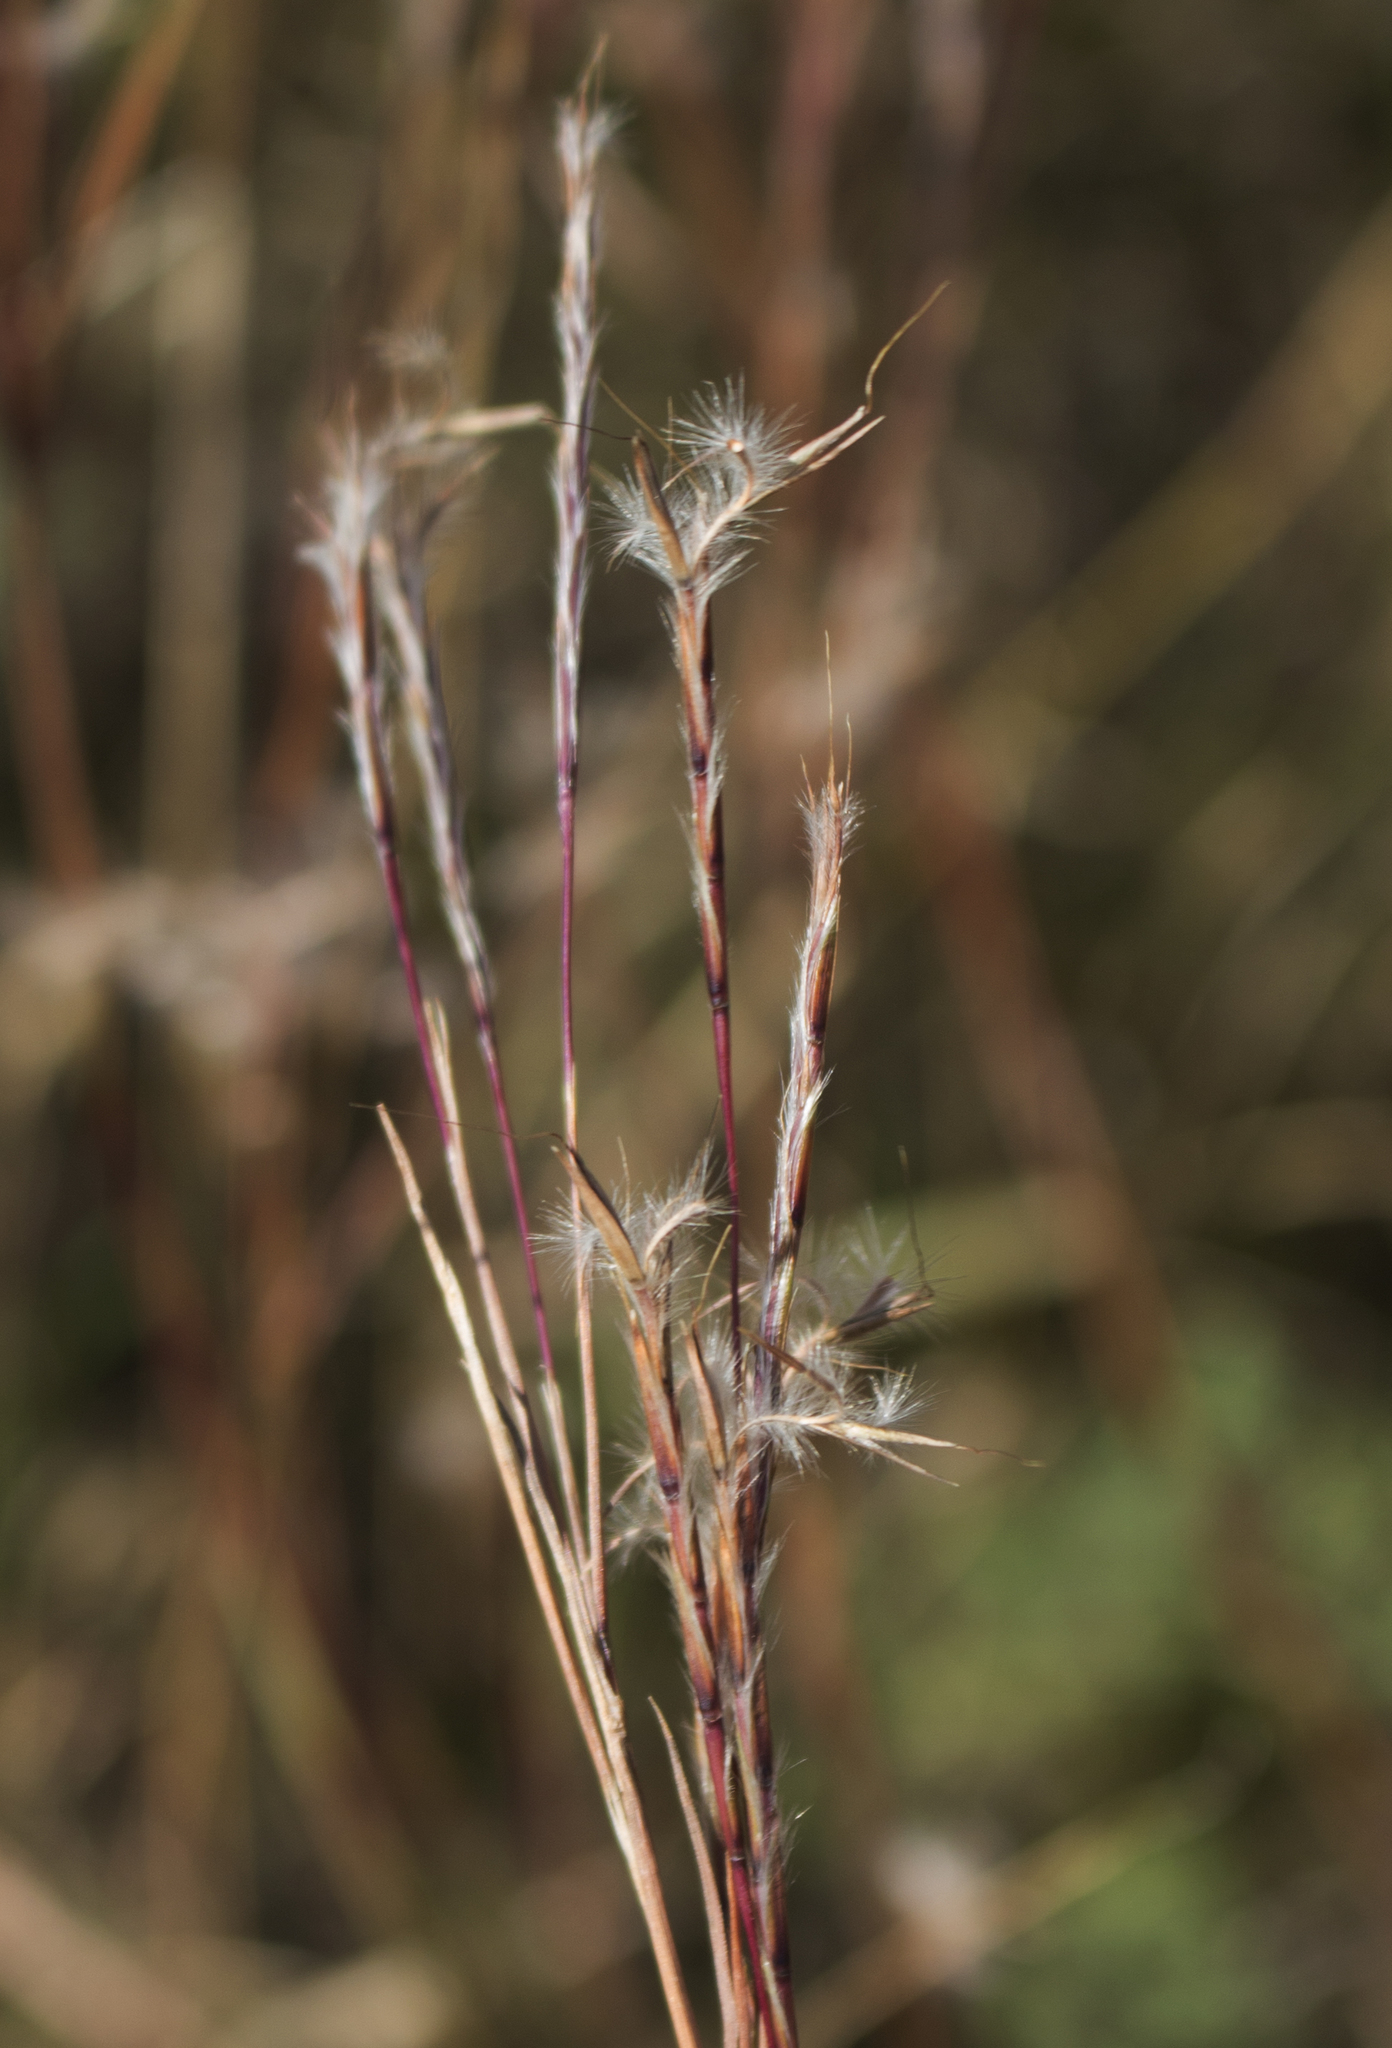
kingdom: Plantae
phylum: Tracheophyta
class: Liliopsida
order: Poales
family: Poaceae
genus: Schizachyrium
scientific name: Schizachyrium scoparium
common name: Little bluestem
